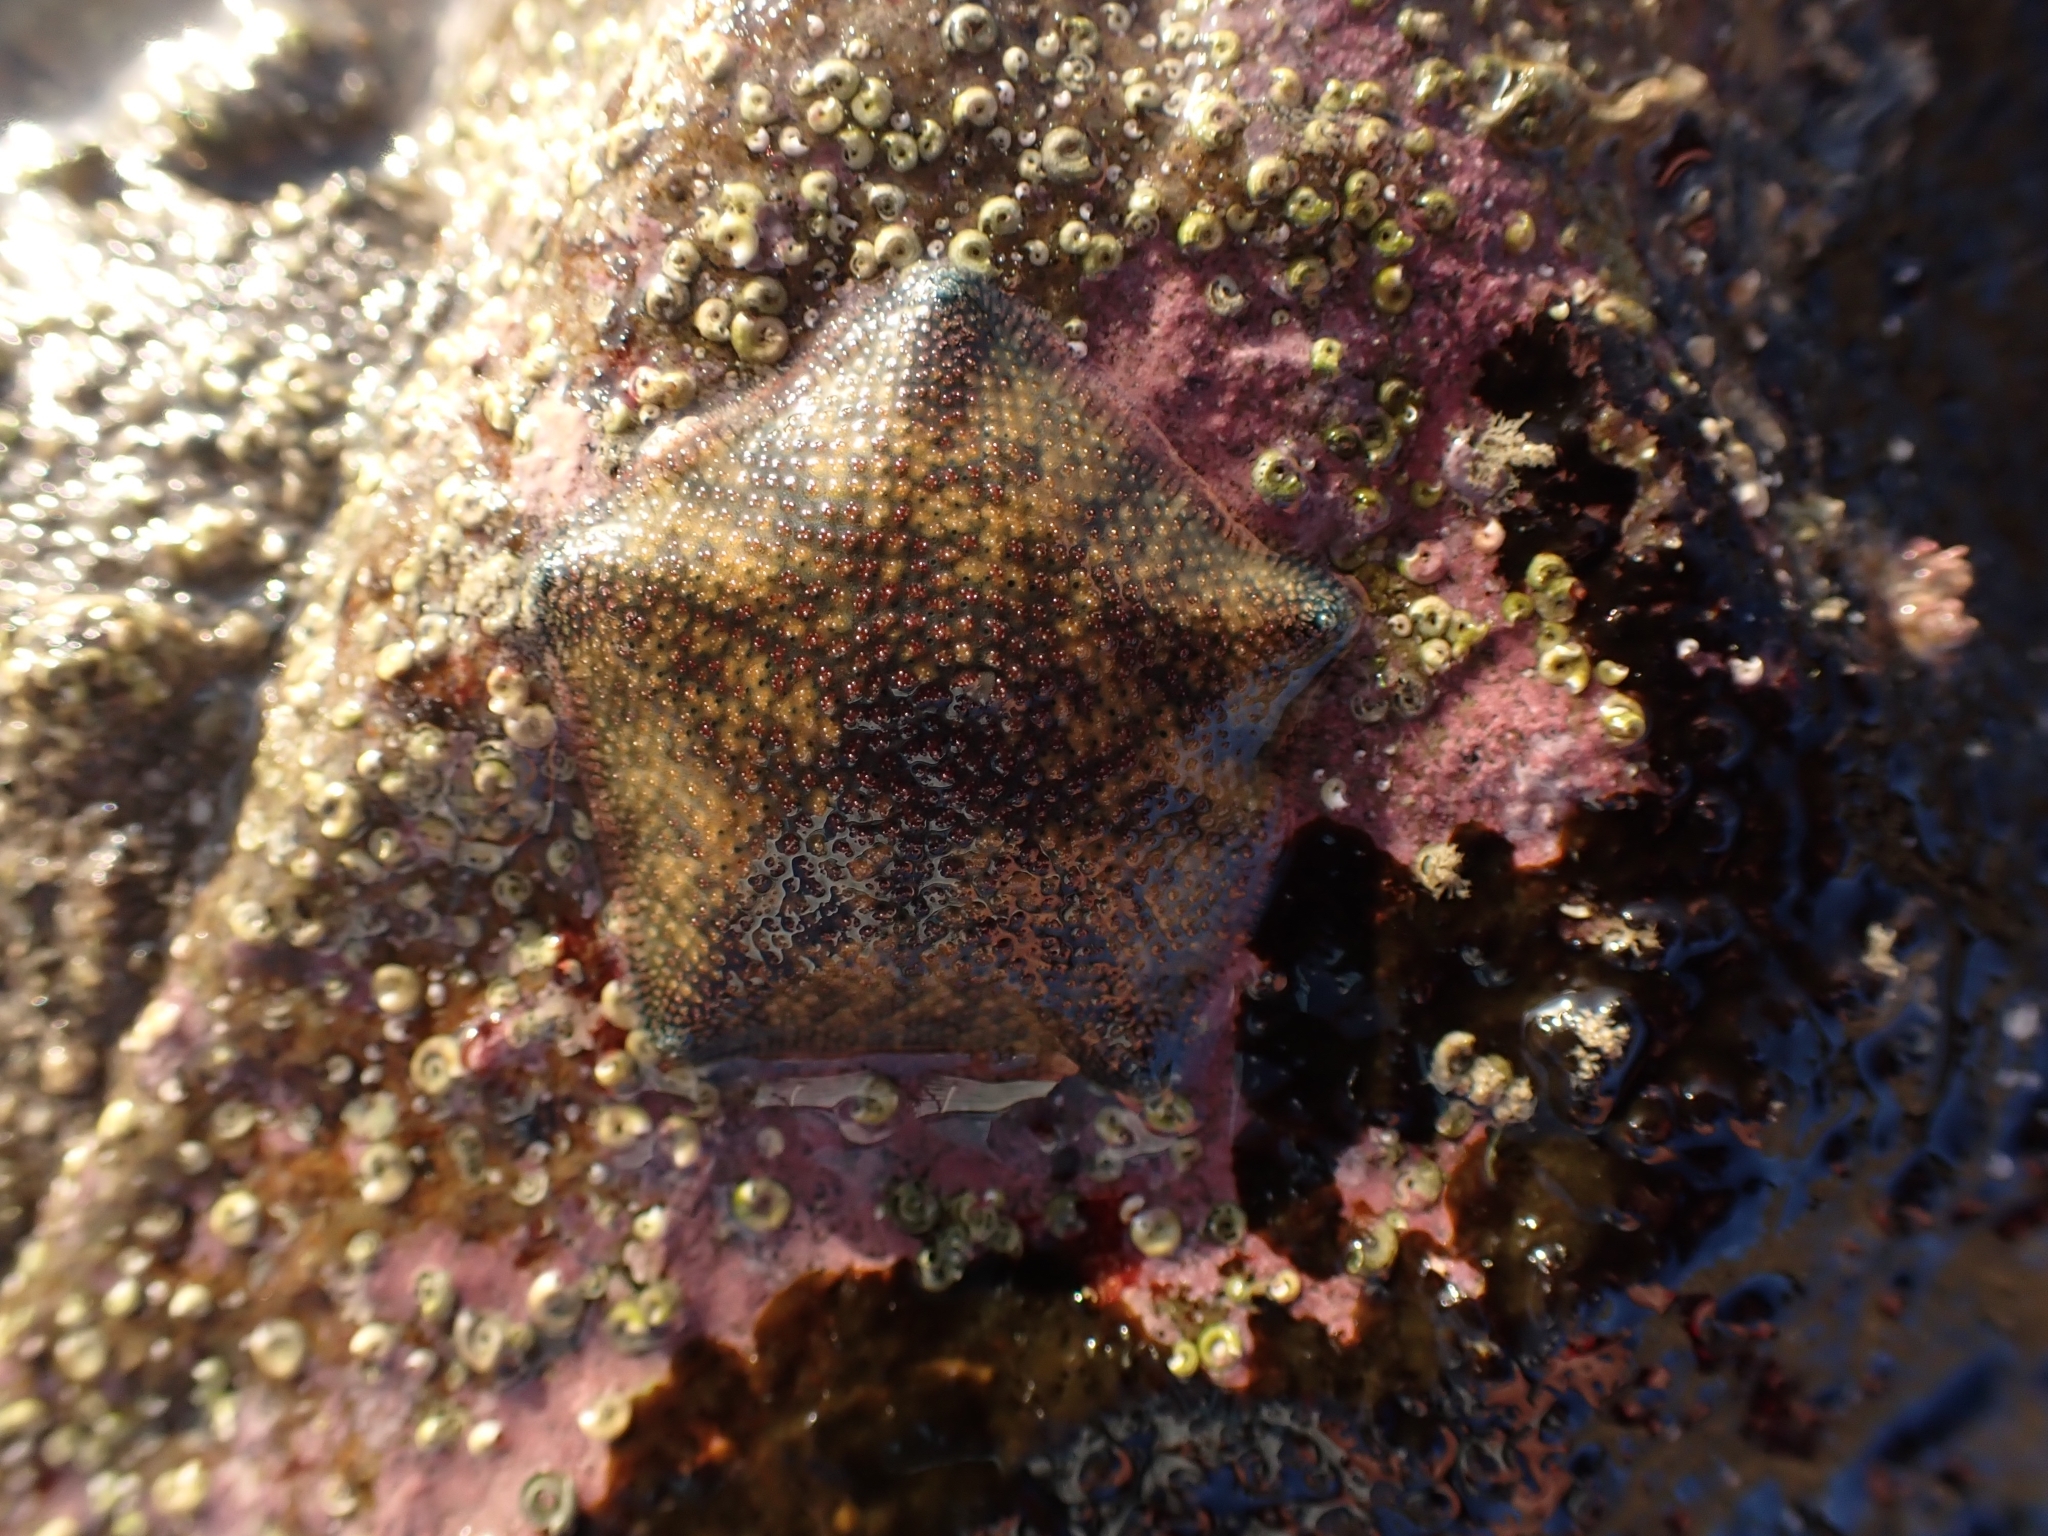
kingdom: Animalia
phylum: Echinodermata
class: Asteroidea
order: Valvatida
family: Asterinidae
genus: Patiriella
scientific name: Patiriella regularis
